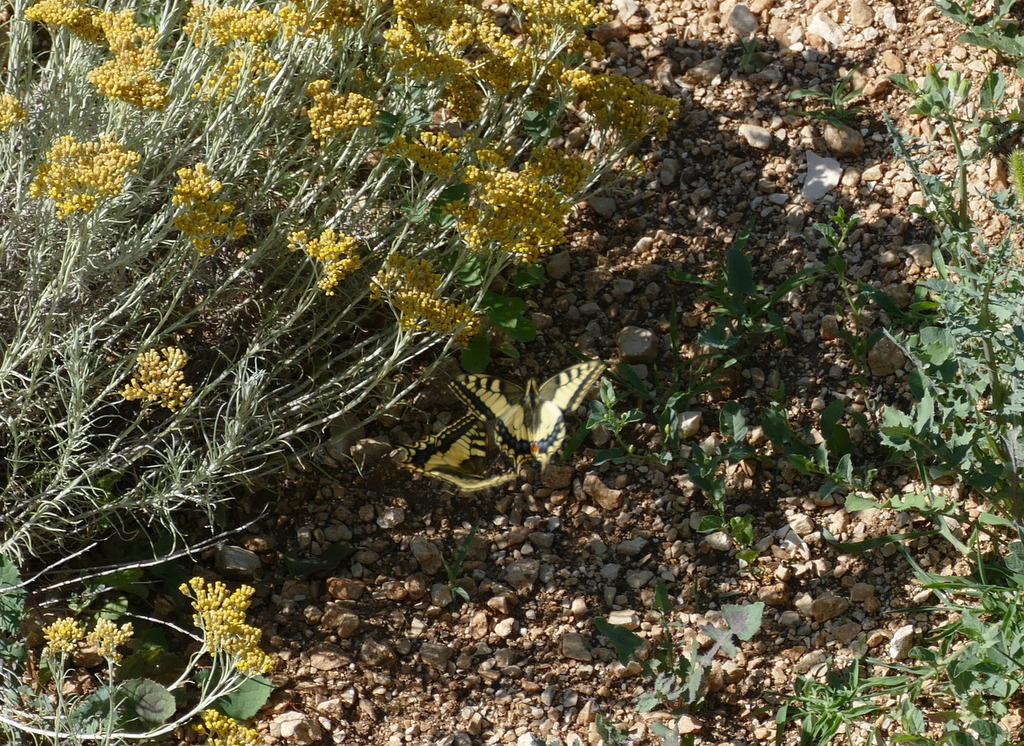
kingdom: Animalia
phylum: Arthropoda
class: Insecta
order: Lepidoptera
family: Papilionidae
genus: Papilio
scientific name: Papilio machaon
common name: Swallowtail
